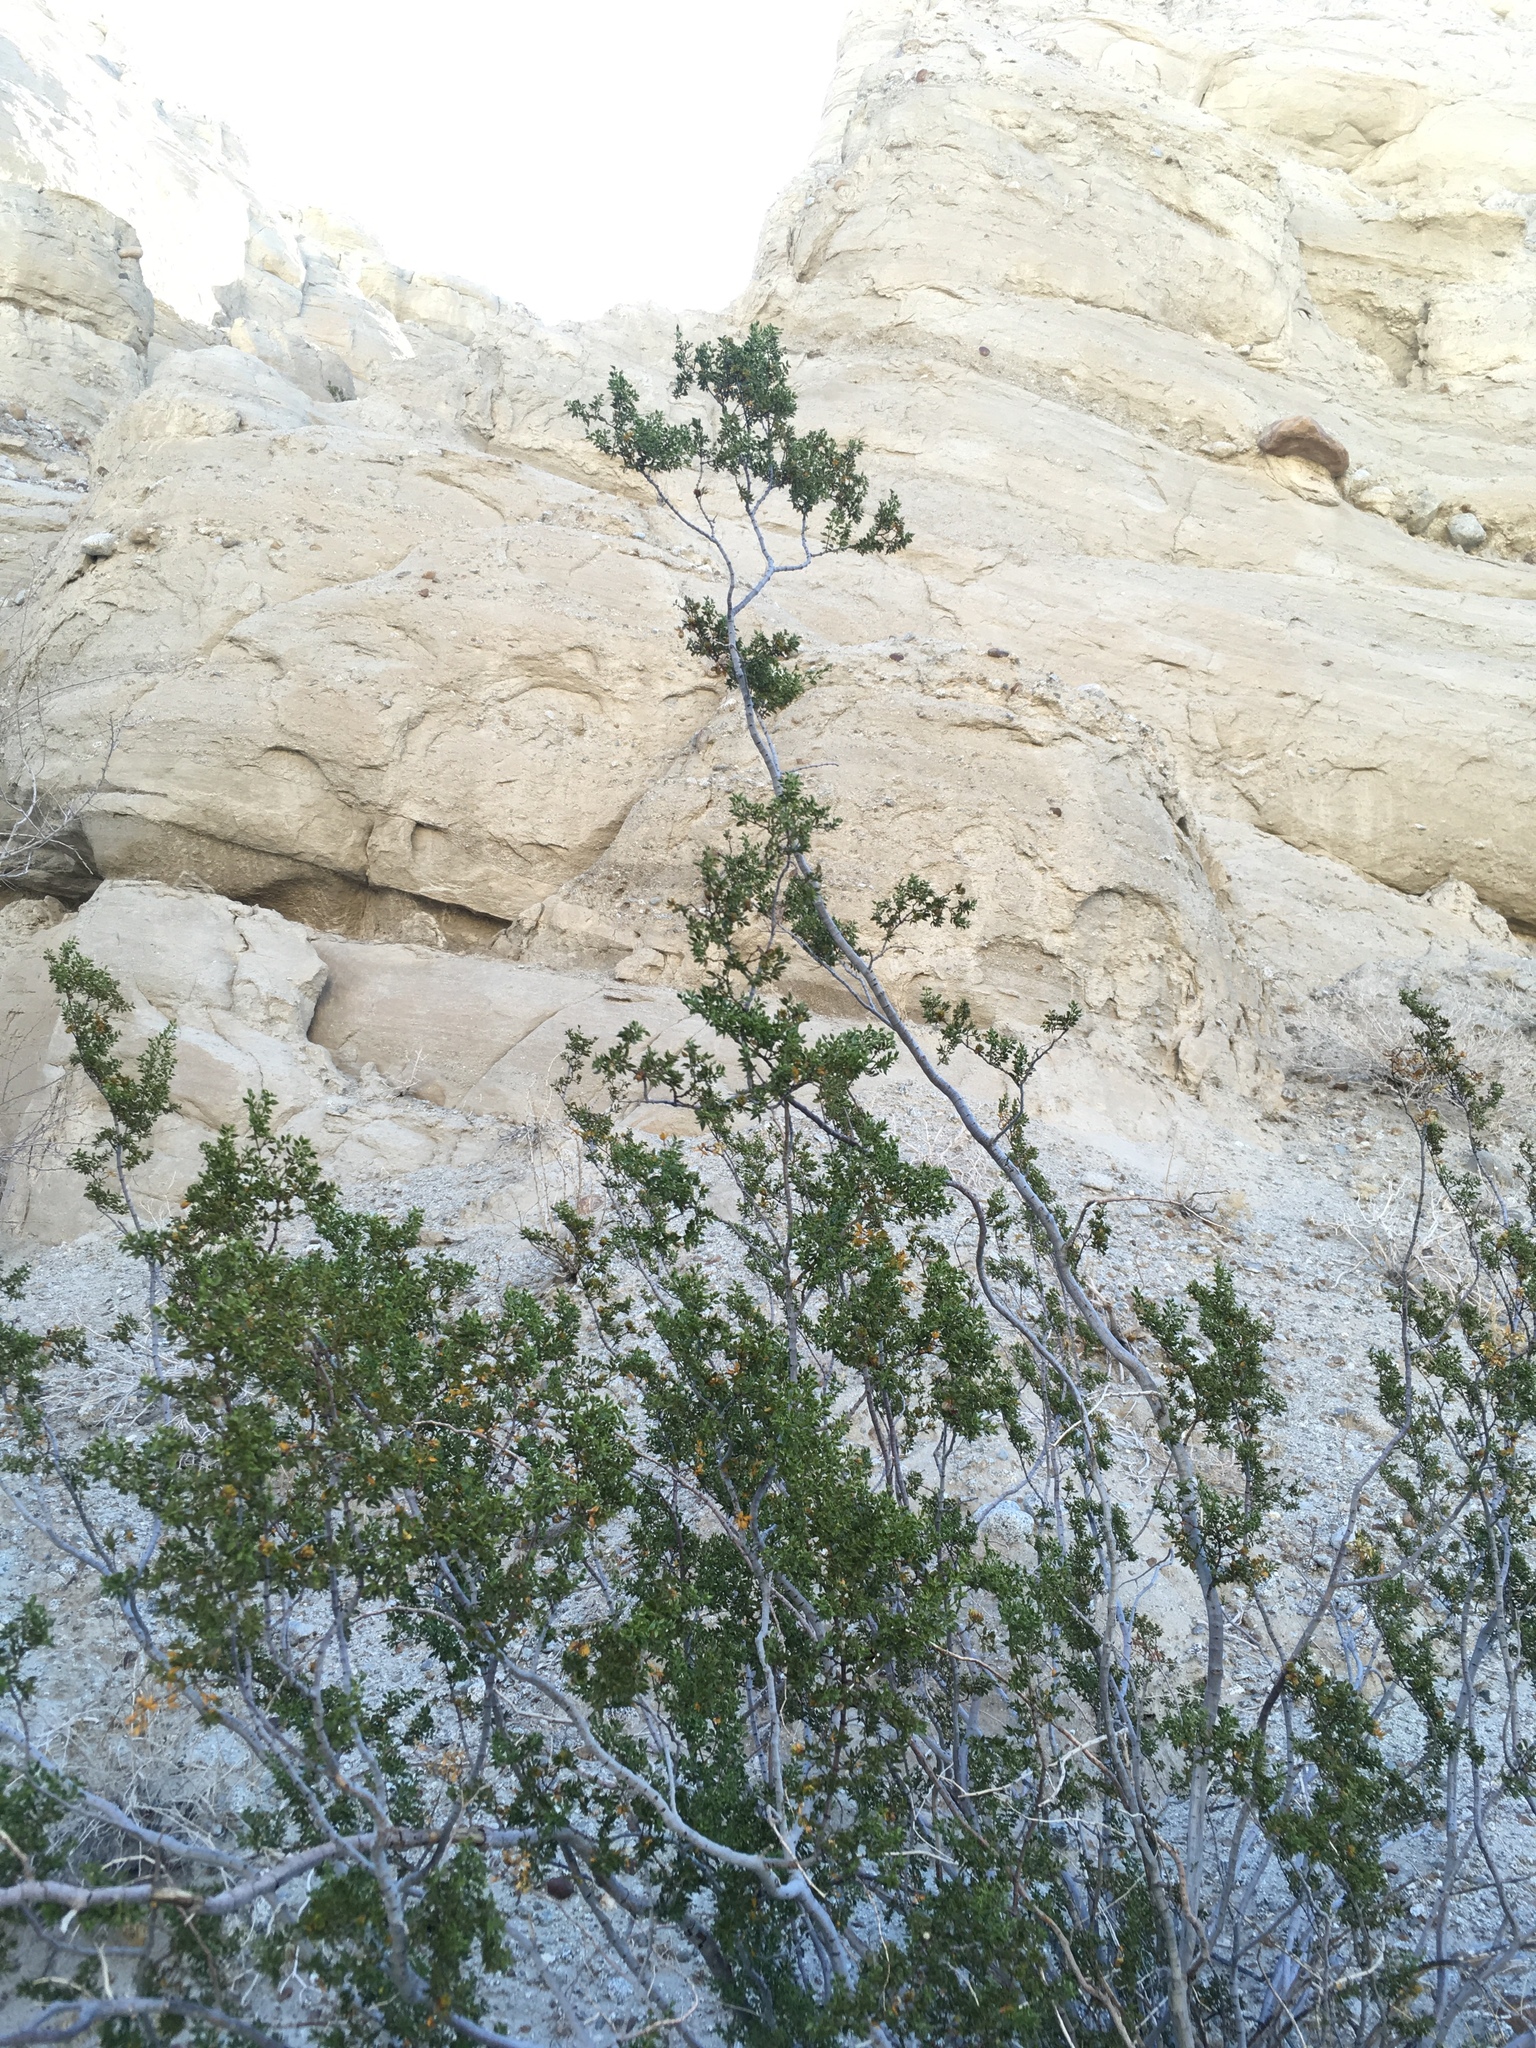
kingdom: Plantae
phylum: Tracheophyta
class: Magnoliopsida
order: Zygophyllales
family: Zygophyllaceae
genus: Larrea
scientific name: Larrea tridentata
